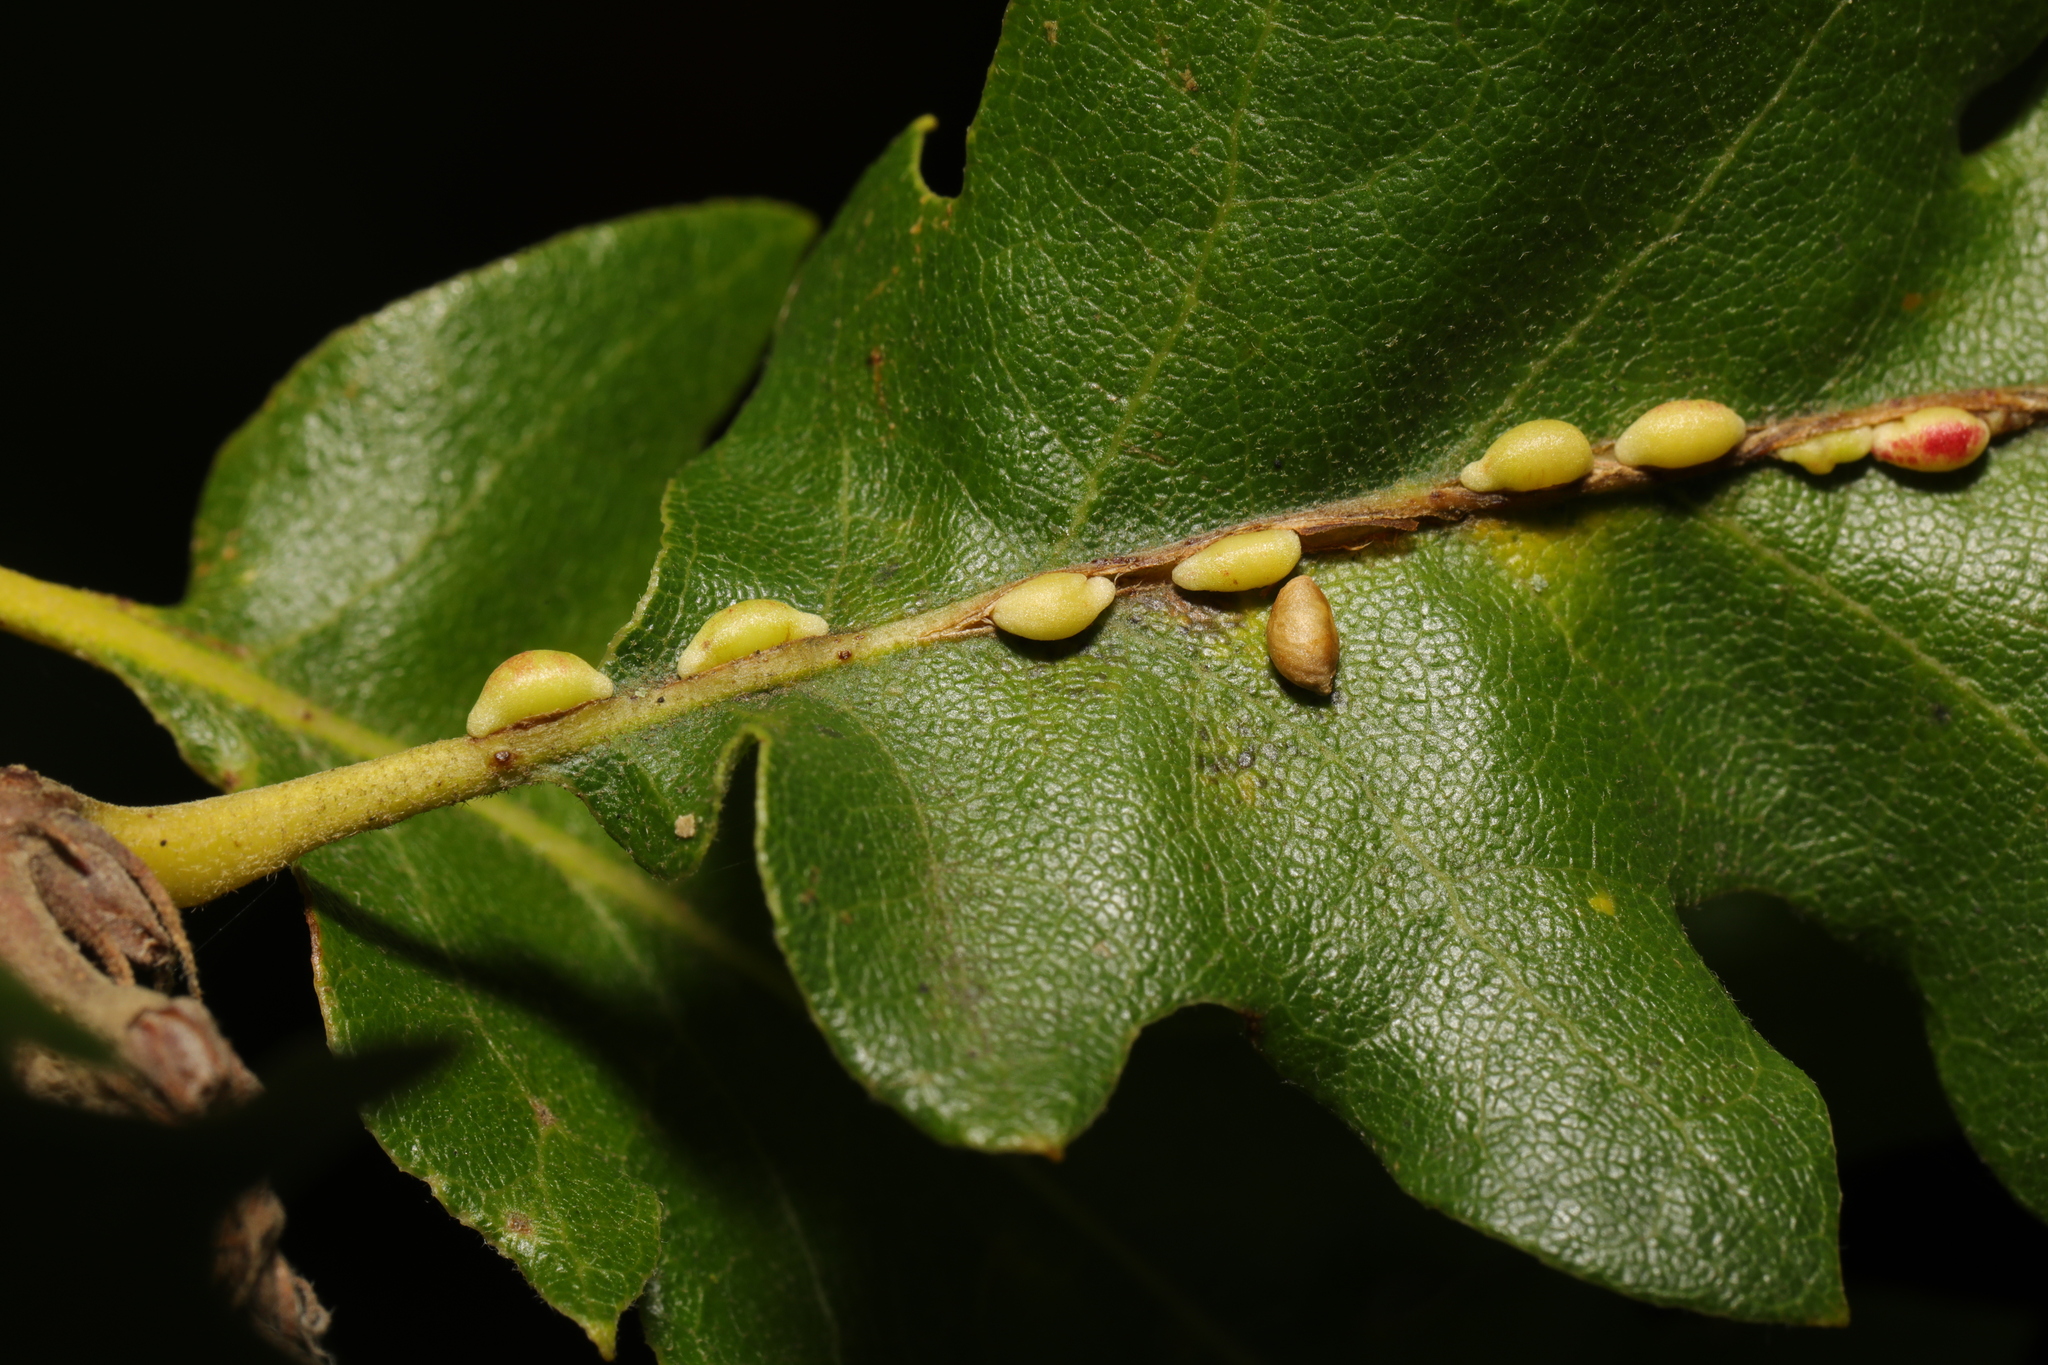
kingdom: Animalia
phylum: Arthropoda
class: Insecta
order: Hymenoptera
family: Cynipidae
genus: Neuroterus
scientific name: Neuroterus saliens
